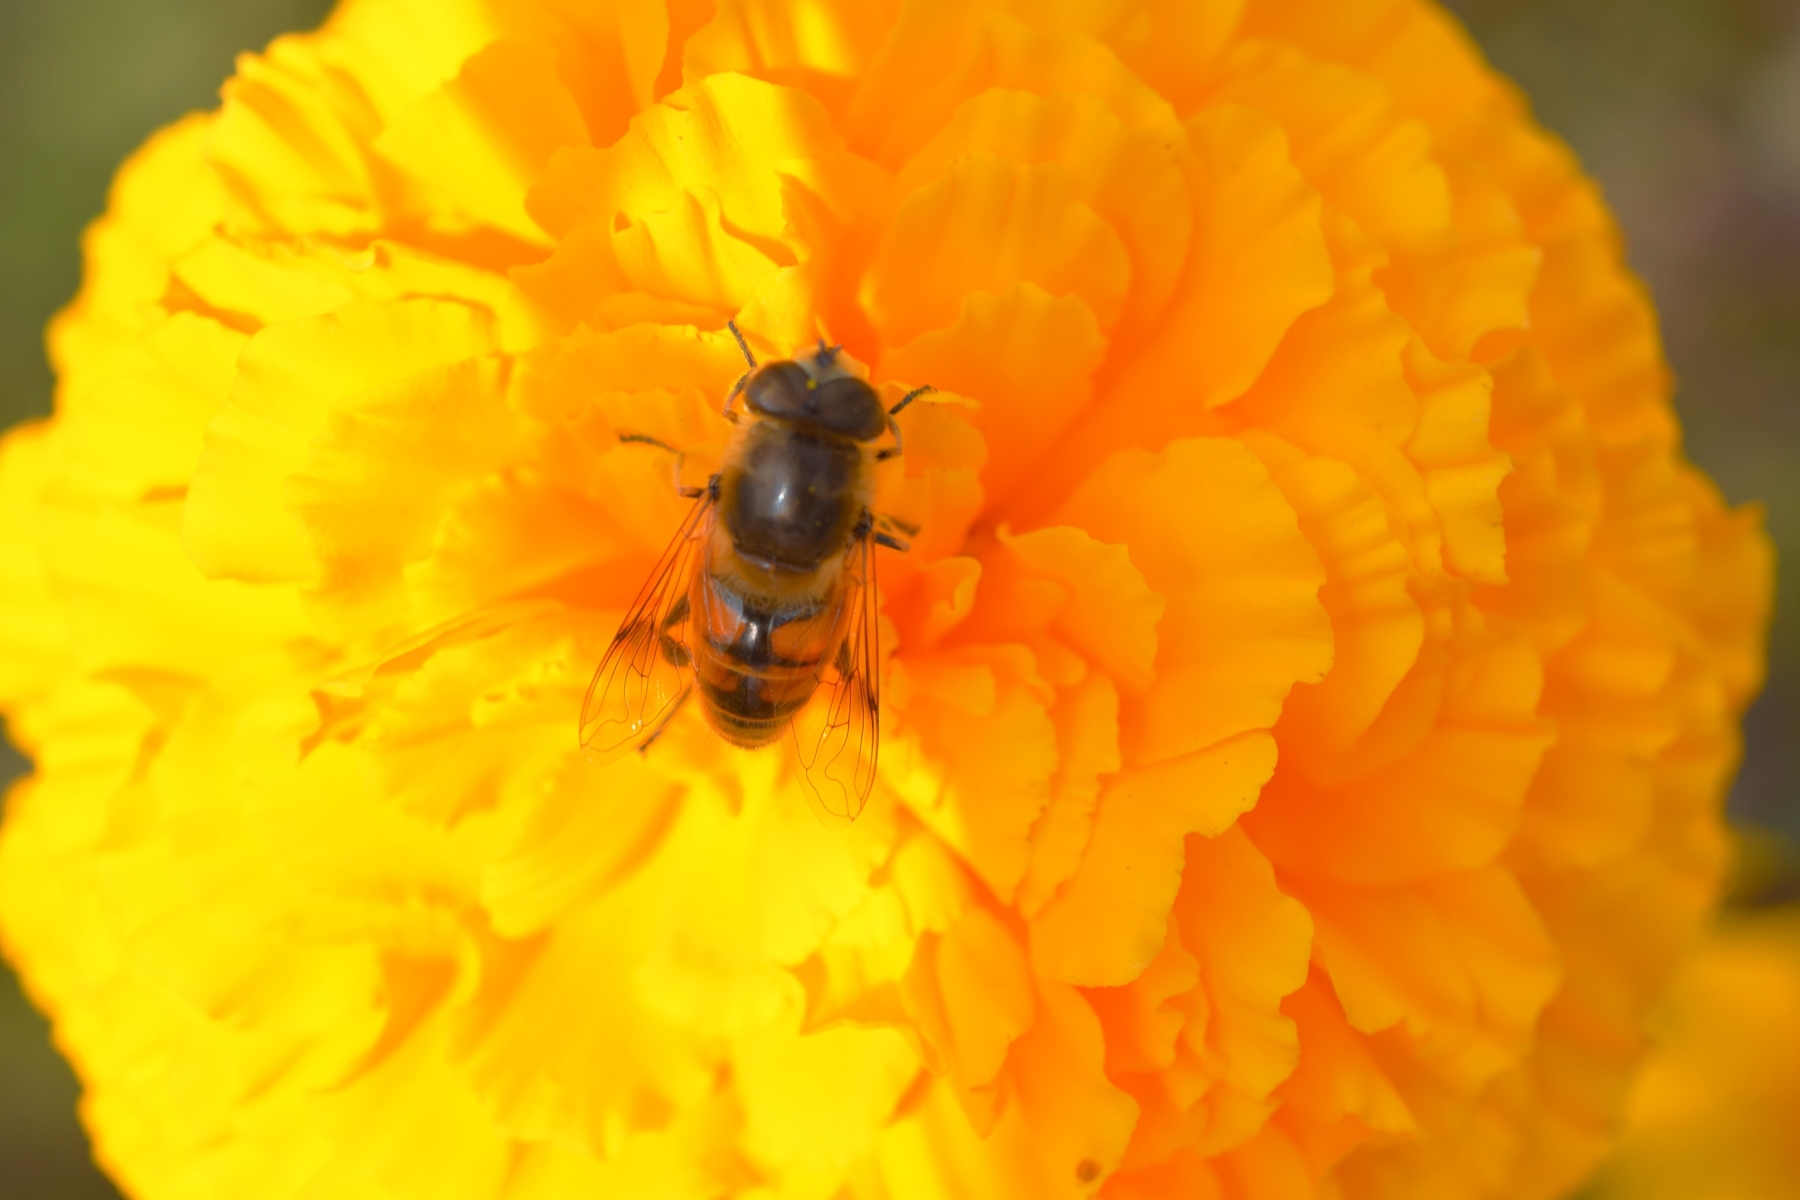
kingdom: Animalia
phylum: Arthropoda
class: Insecta
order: Diptera
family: Syrphidae
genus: Eristalis
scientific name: Eristalis tenax
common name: Drone fly
